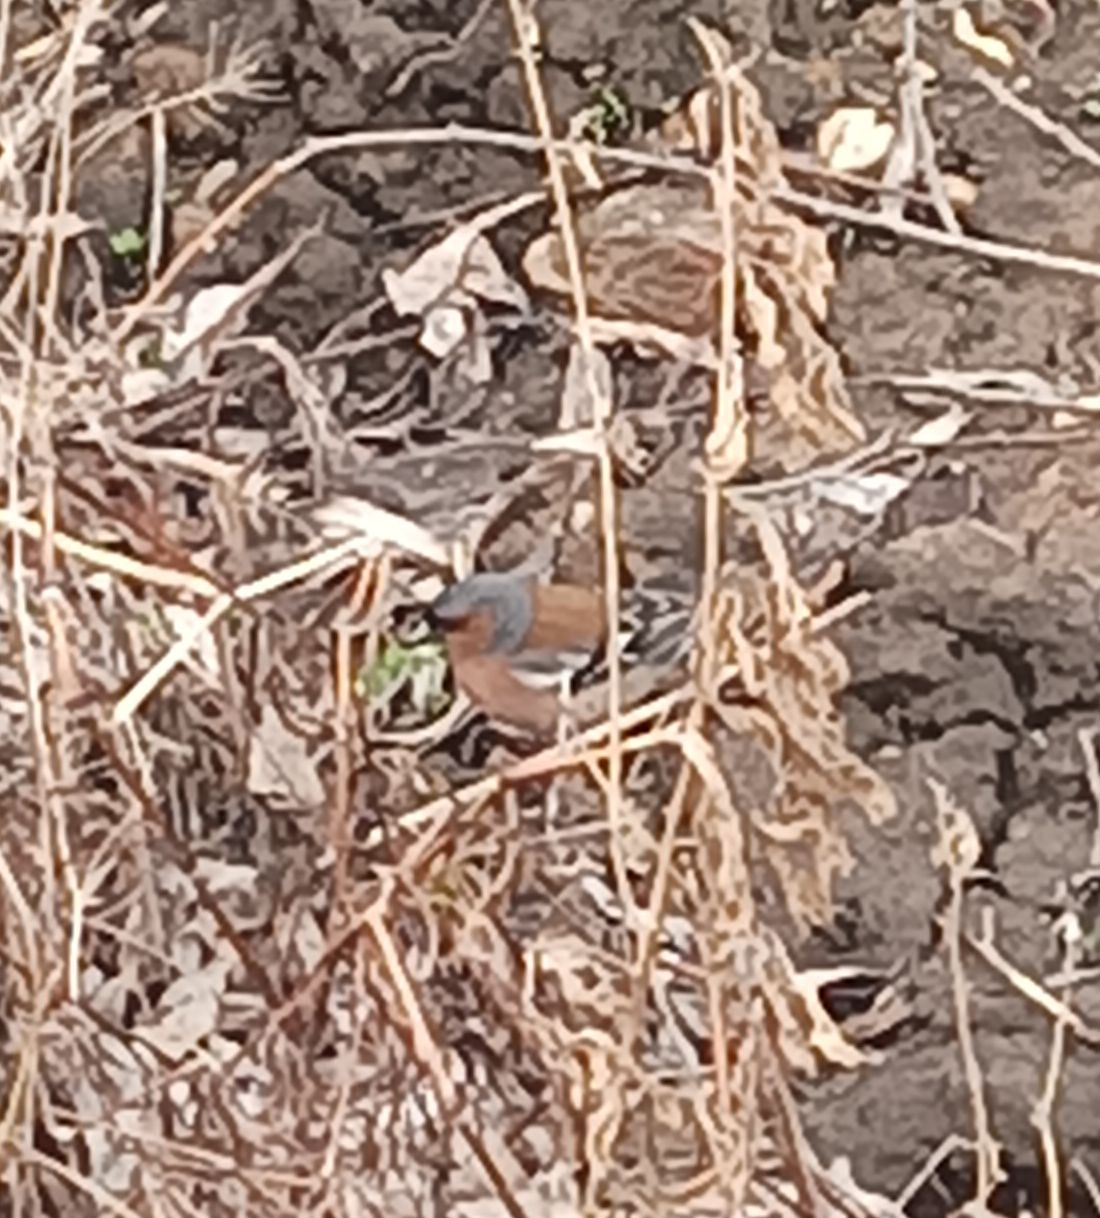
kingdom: Animalia
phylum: Chordata
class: Aves
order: Passeriformes
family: Fringillidae
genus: Fringilla
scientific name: Fringilla coelebs
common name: Common chaffinch
